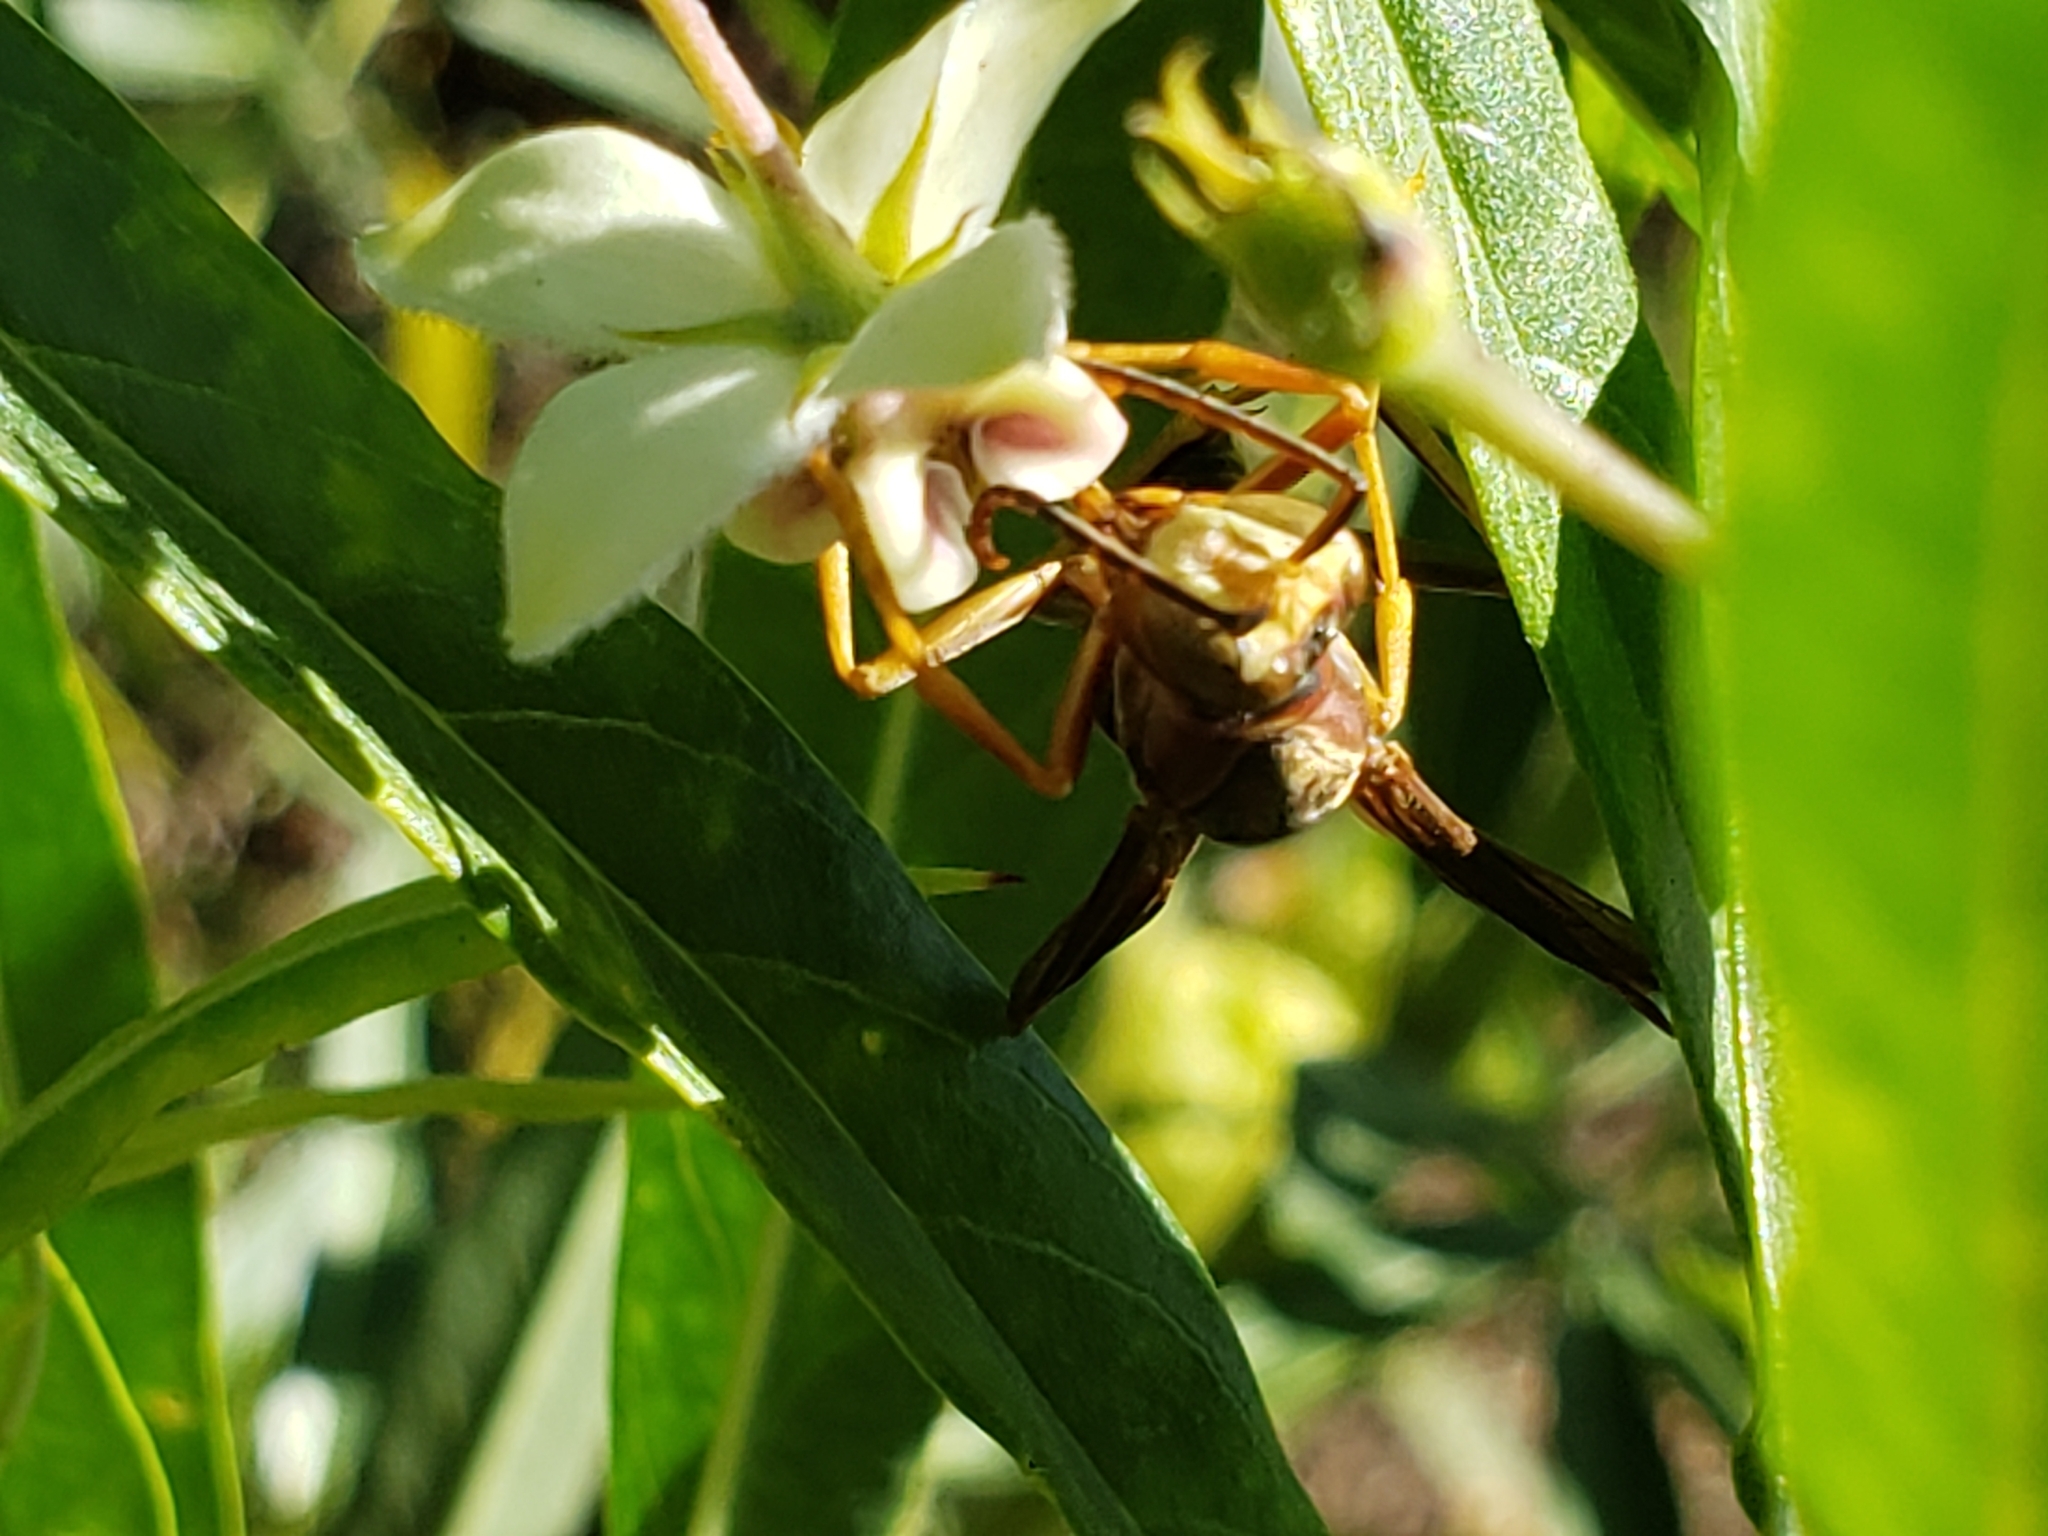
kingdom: Animalia
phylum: Arthropoda
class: Insecta
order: Hymenoptera
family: Eumenidae
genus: Polistes
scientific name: Polistes metricus
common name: Metric paper wasp
